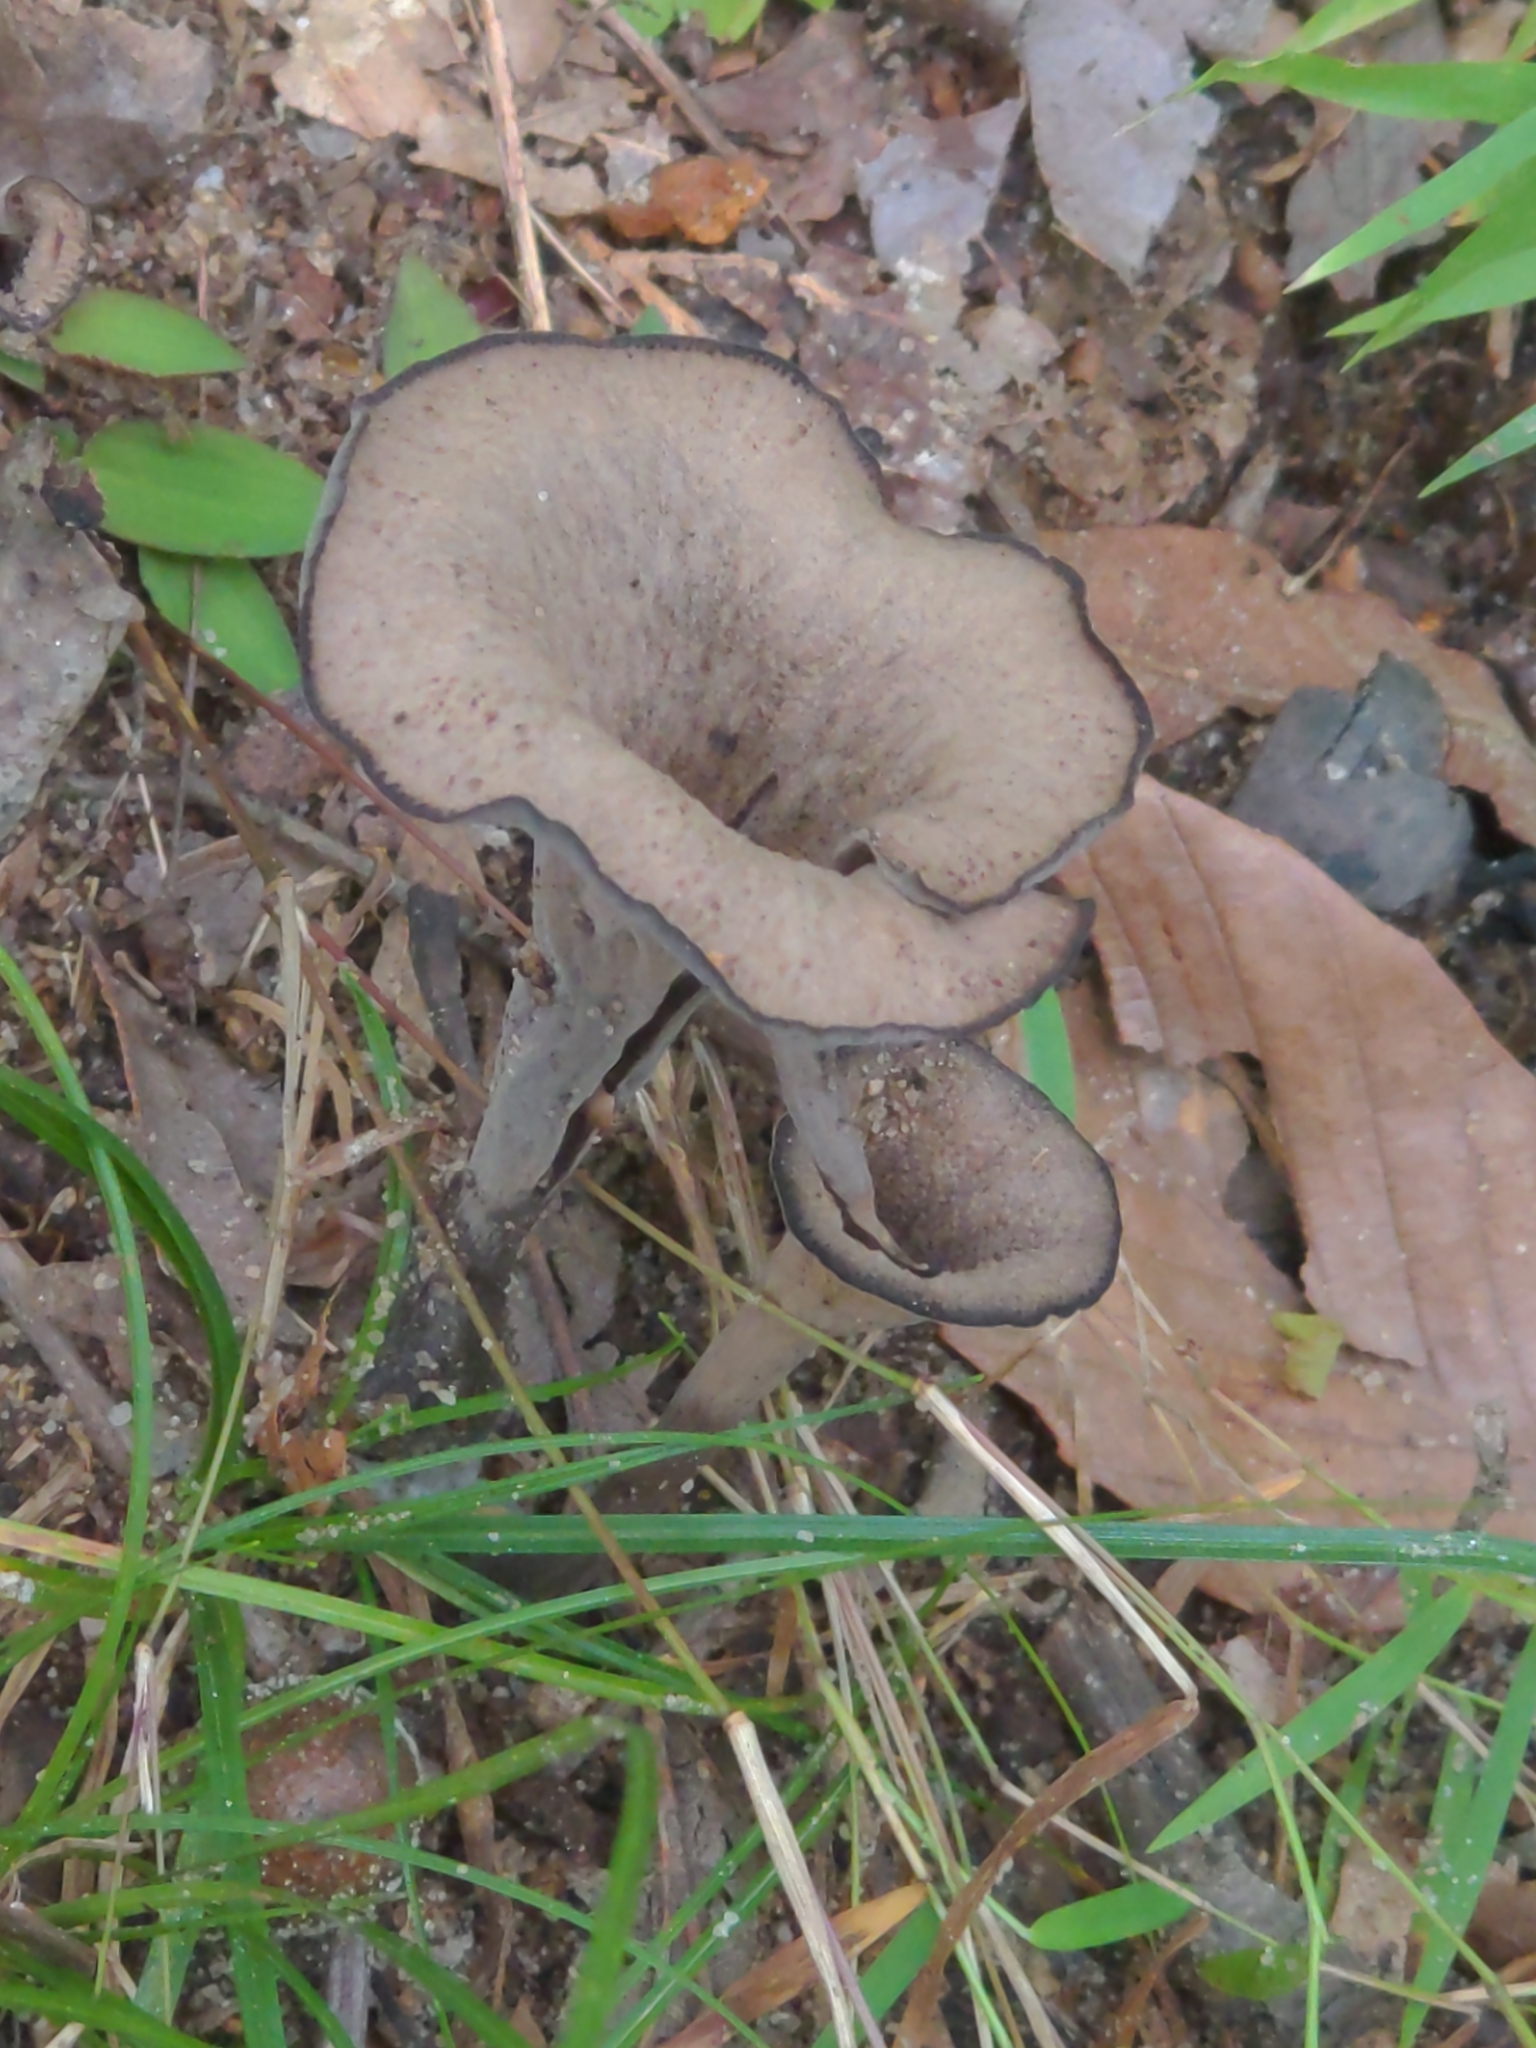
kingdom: Fungi
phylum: Basidiomycota
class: Agaricomycetes
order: Cantharellales
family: Hydnaceae
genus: Craterellus
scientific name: Craterellus cornucopioides
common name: Horn of plenty
